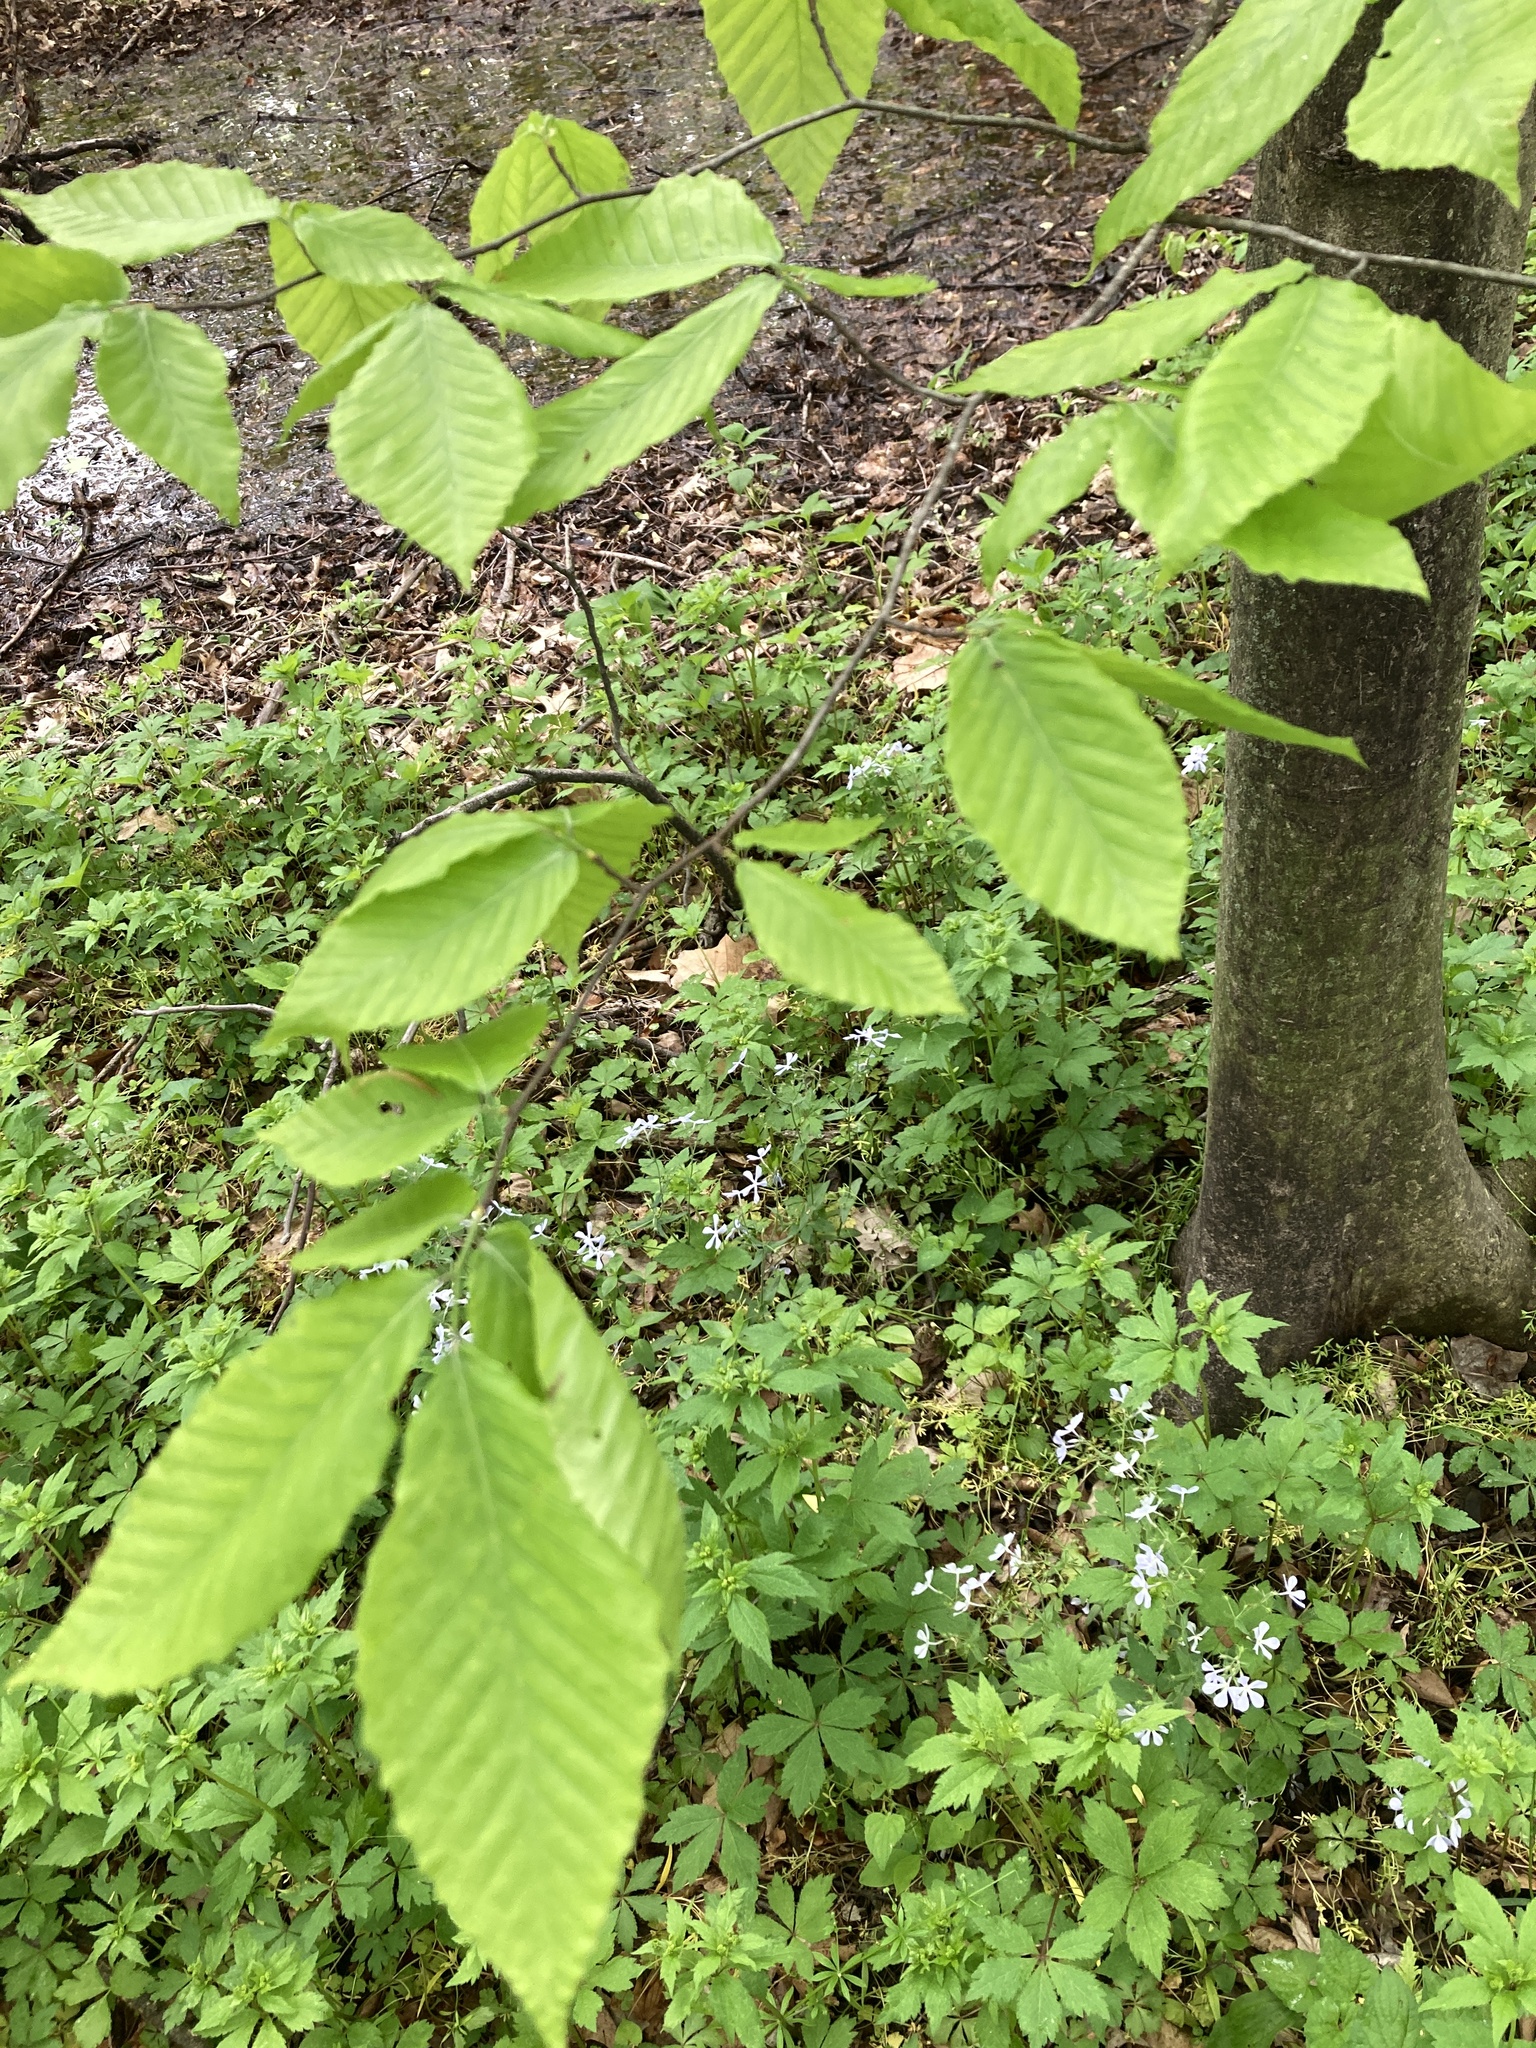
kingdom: Plantae
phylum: Tracheophyta
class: Magnoliopsida
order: Fagales
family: Fagaceae
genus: Fagus
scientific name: Fagus grandifolia
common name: American beech
